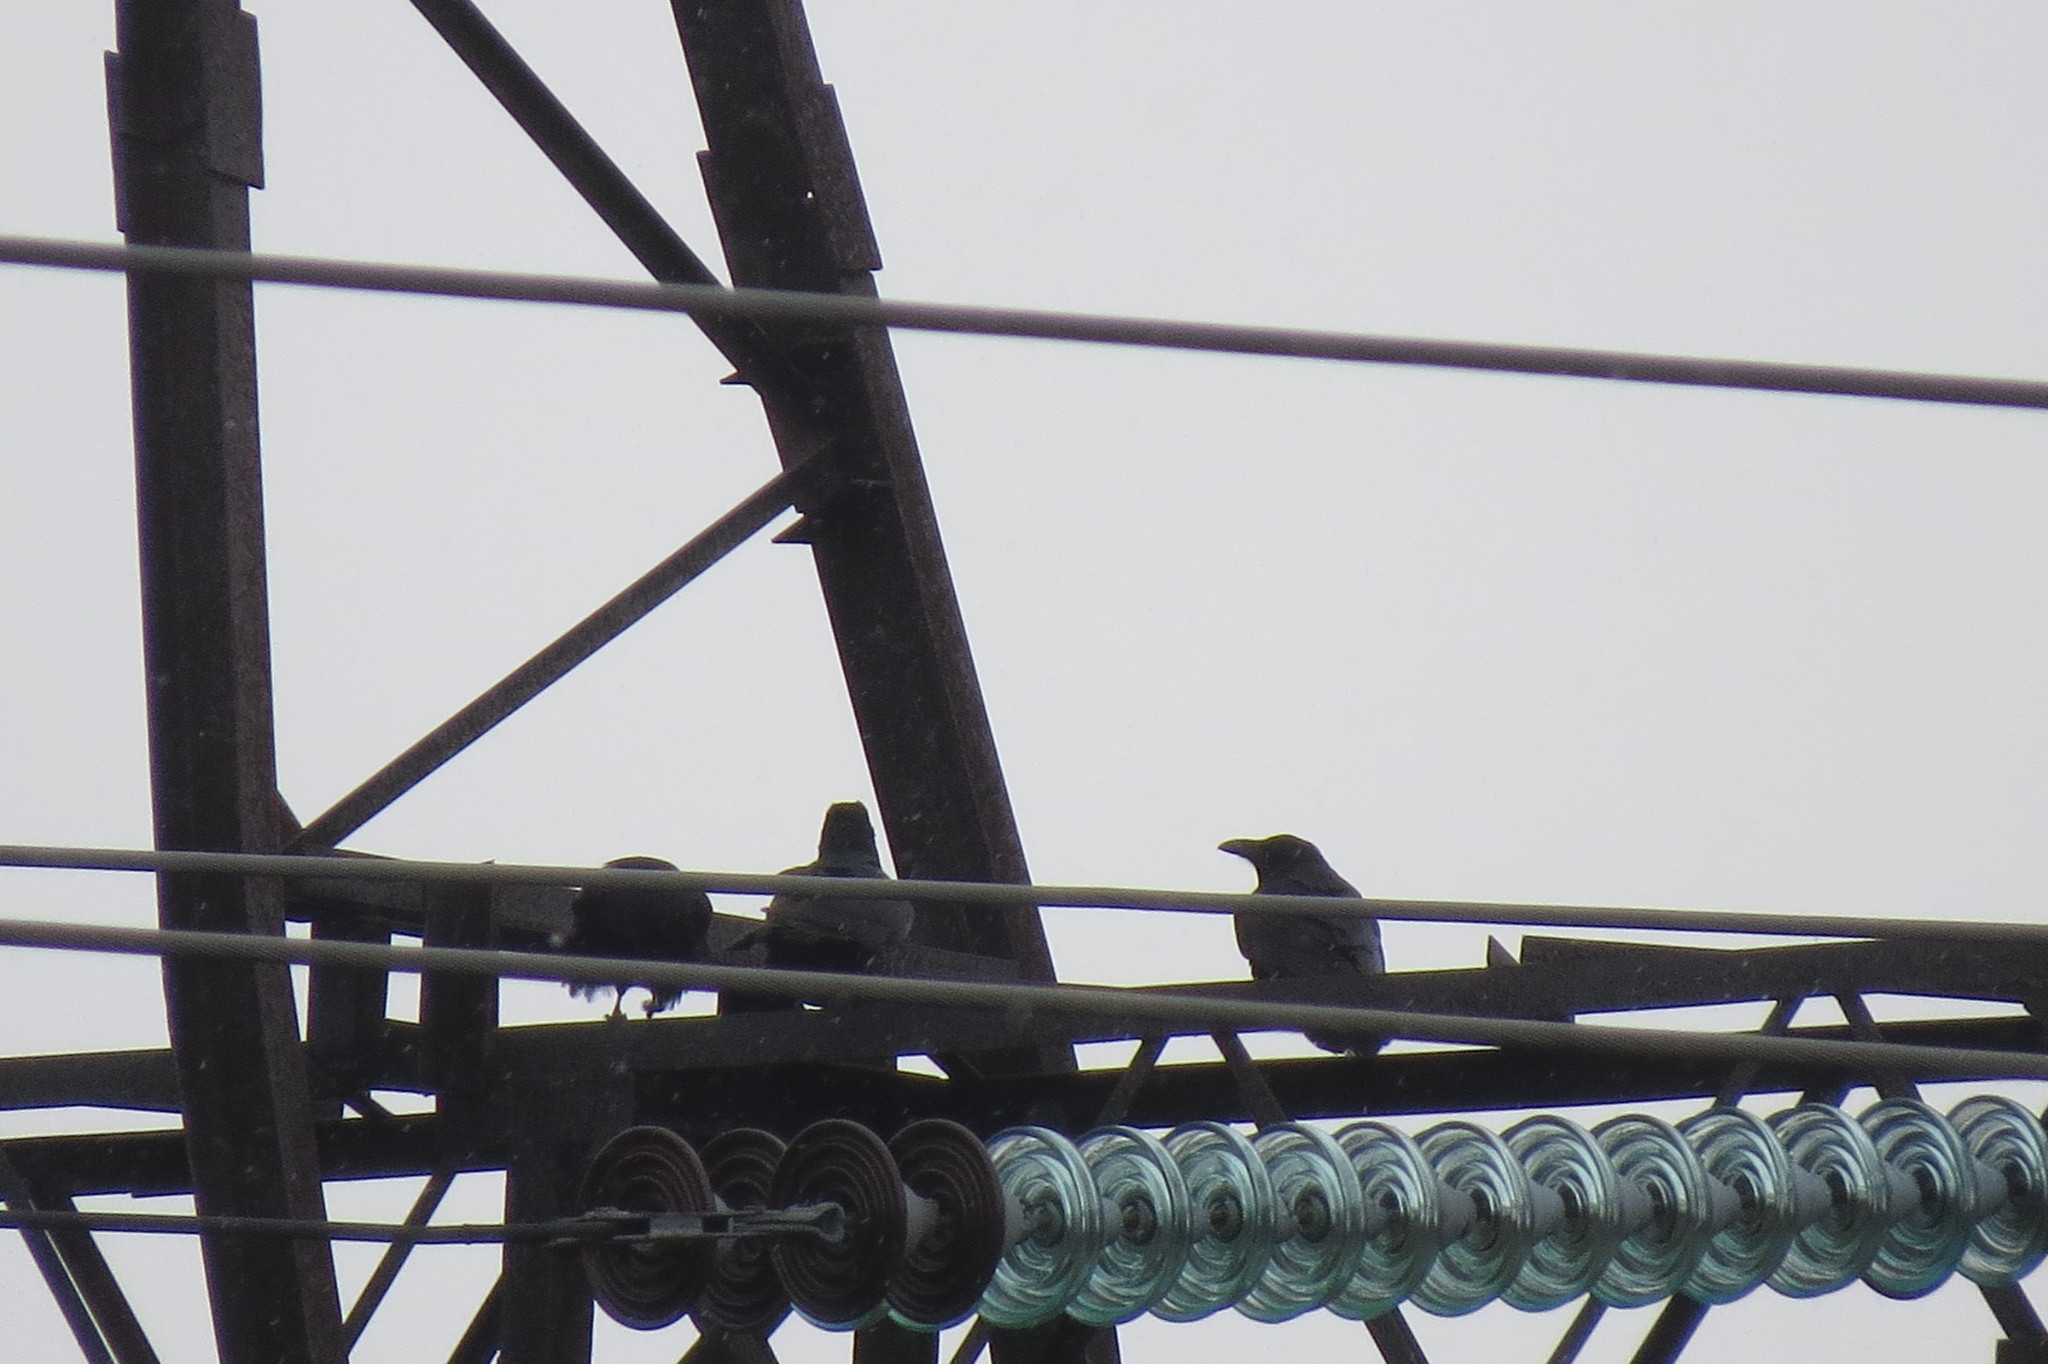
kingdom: Animalia
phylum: Chordata
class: Aves
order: Passeriformes
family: Corvidae
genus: Corvus
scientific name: Corvus corax
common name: Common raven
